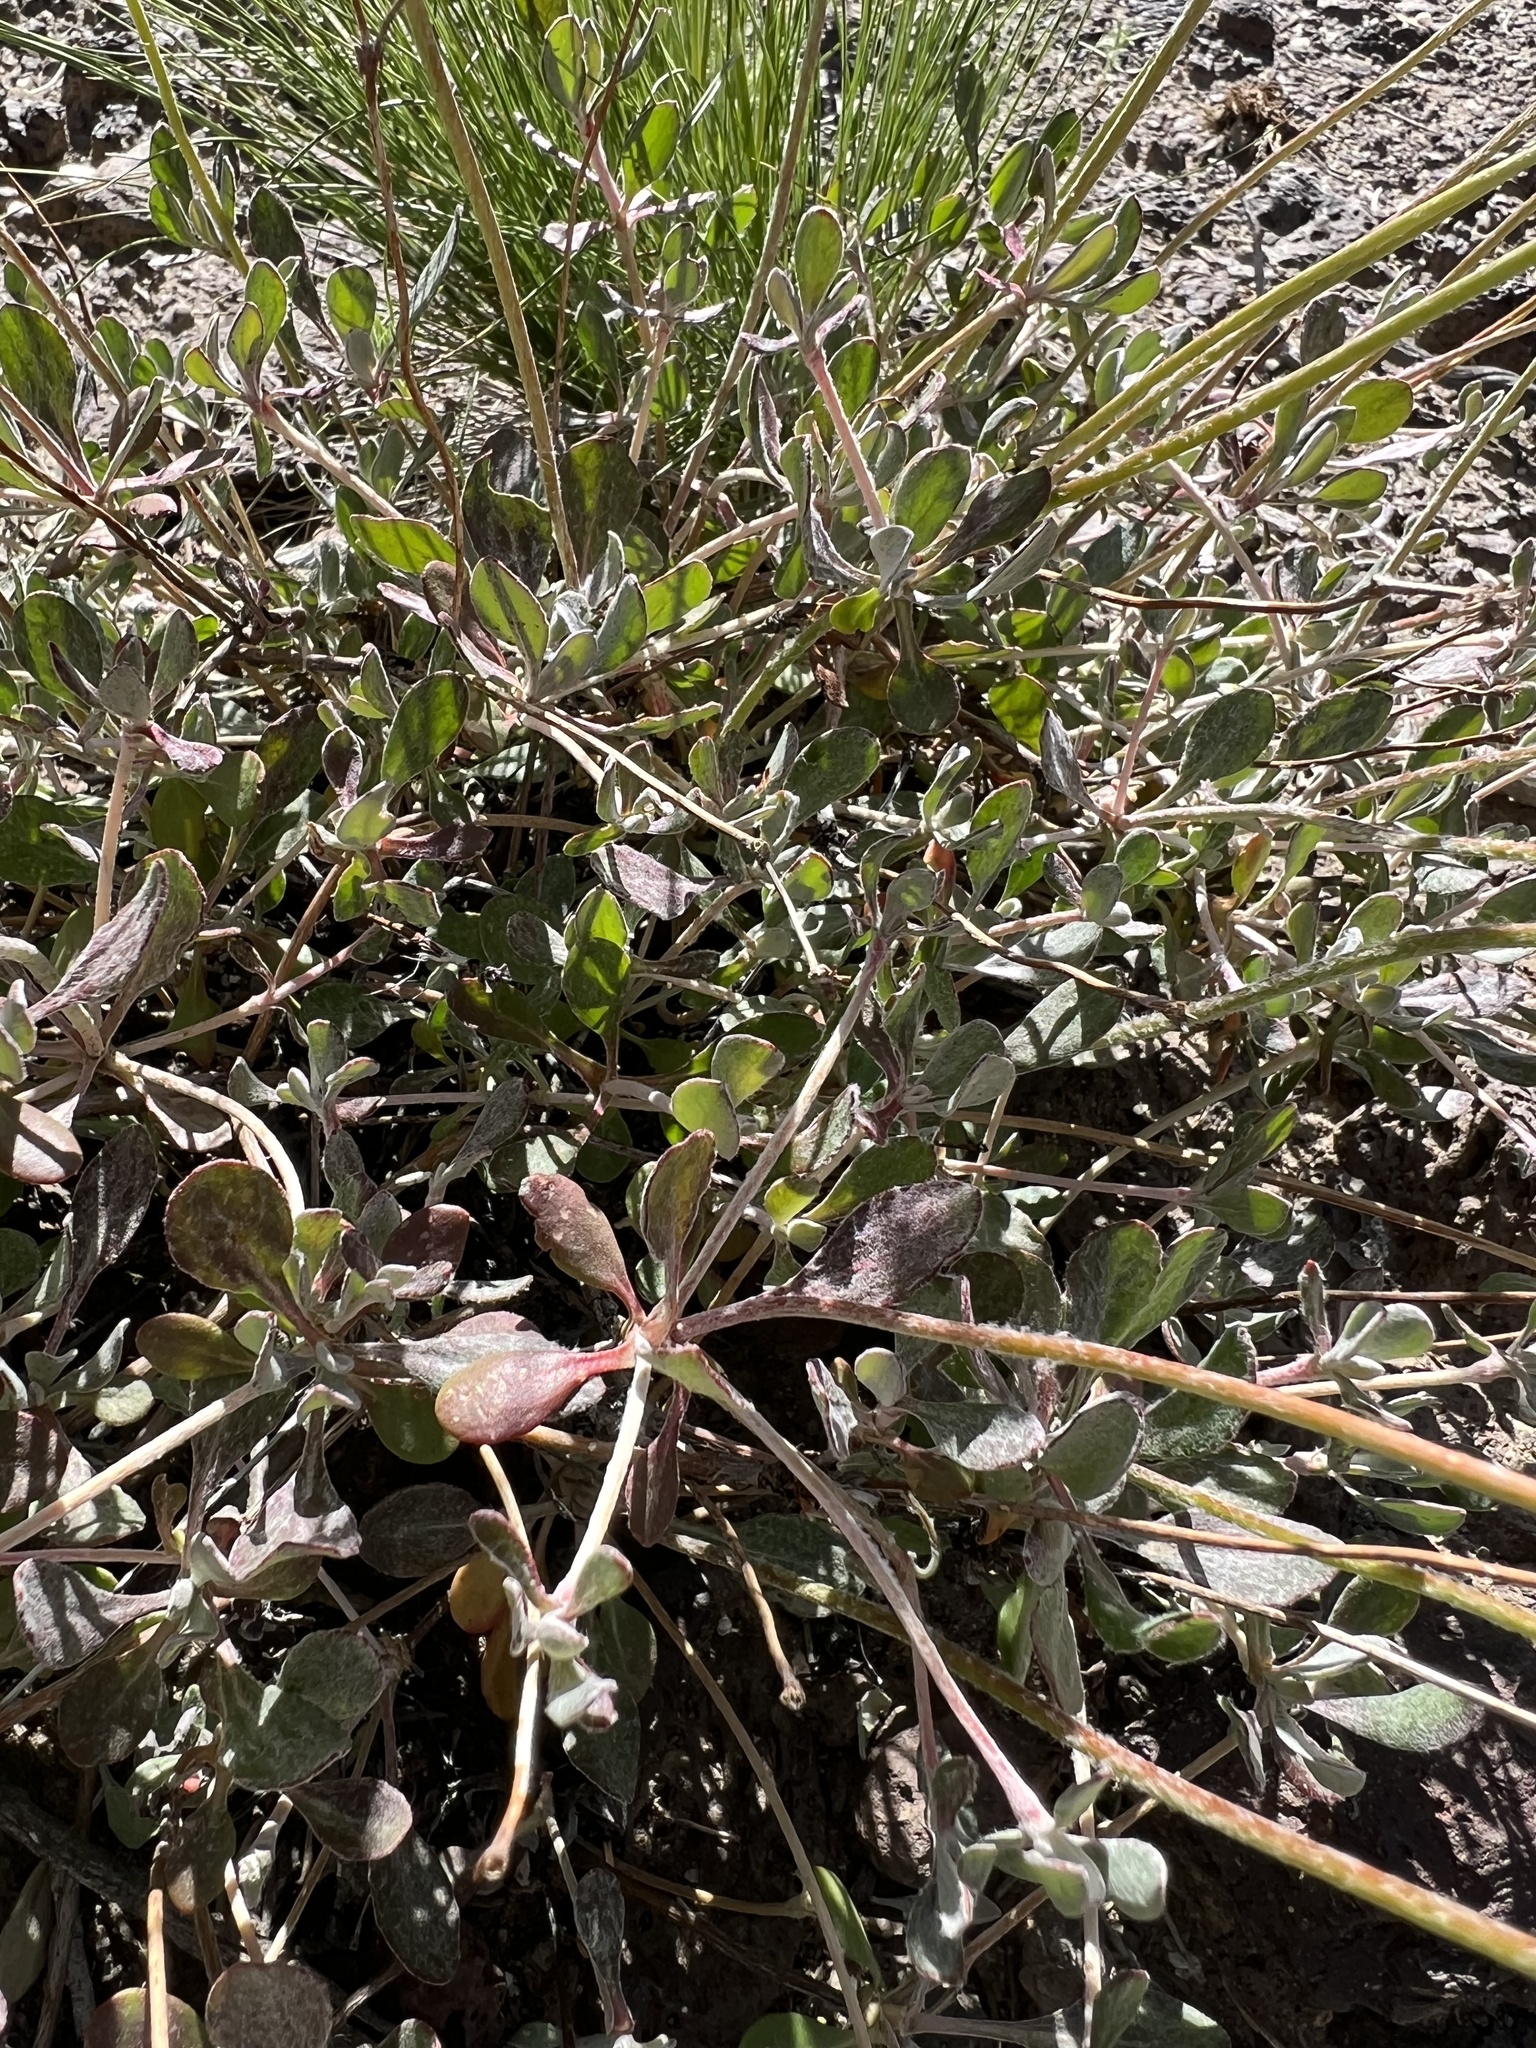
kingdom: Plantae
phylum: Tracheophyta
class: Magnoliopsida
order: Caryophyllales
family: Polygonaceae
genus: Eriogonum
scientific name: Eriogonum umbellatum
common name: Sulfur-buckwheat
